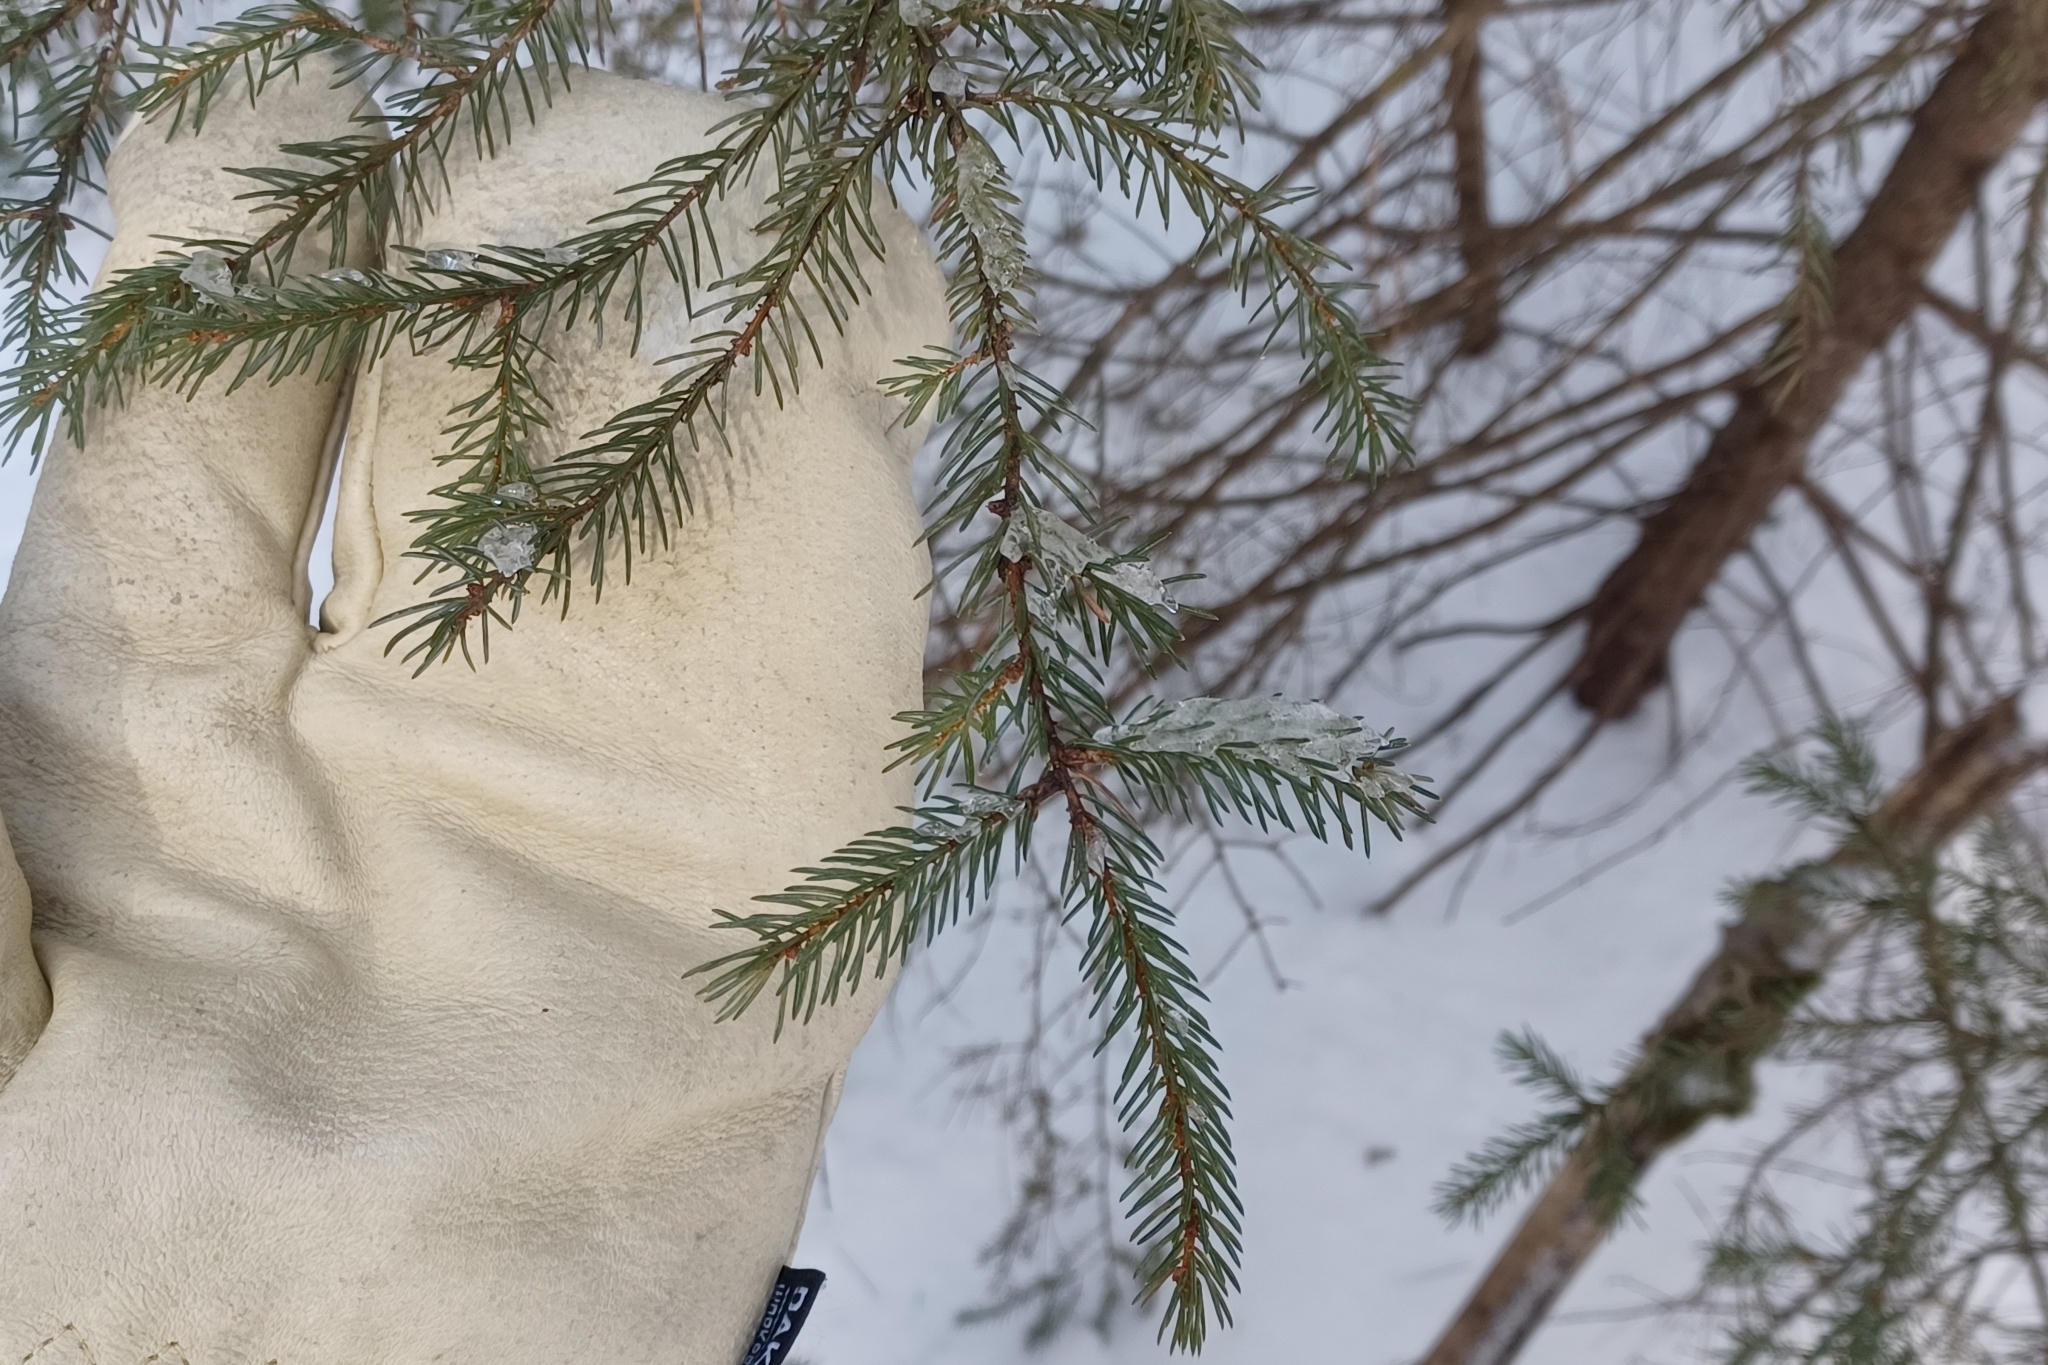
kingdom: Plantae
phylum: Tracheophyta
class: Pinopsida
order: Pinales
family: Pinaceae
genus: Picea
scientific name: Picea mariana
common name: Black spruce
